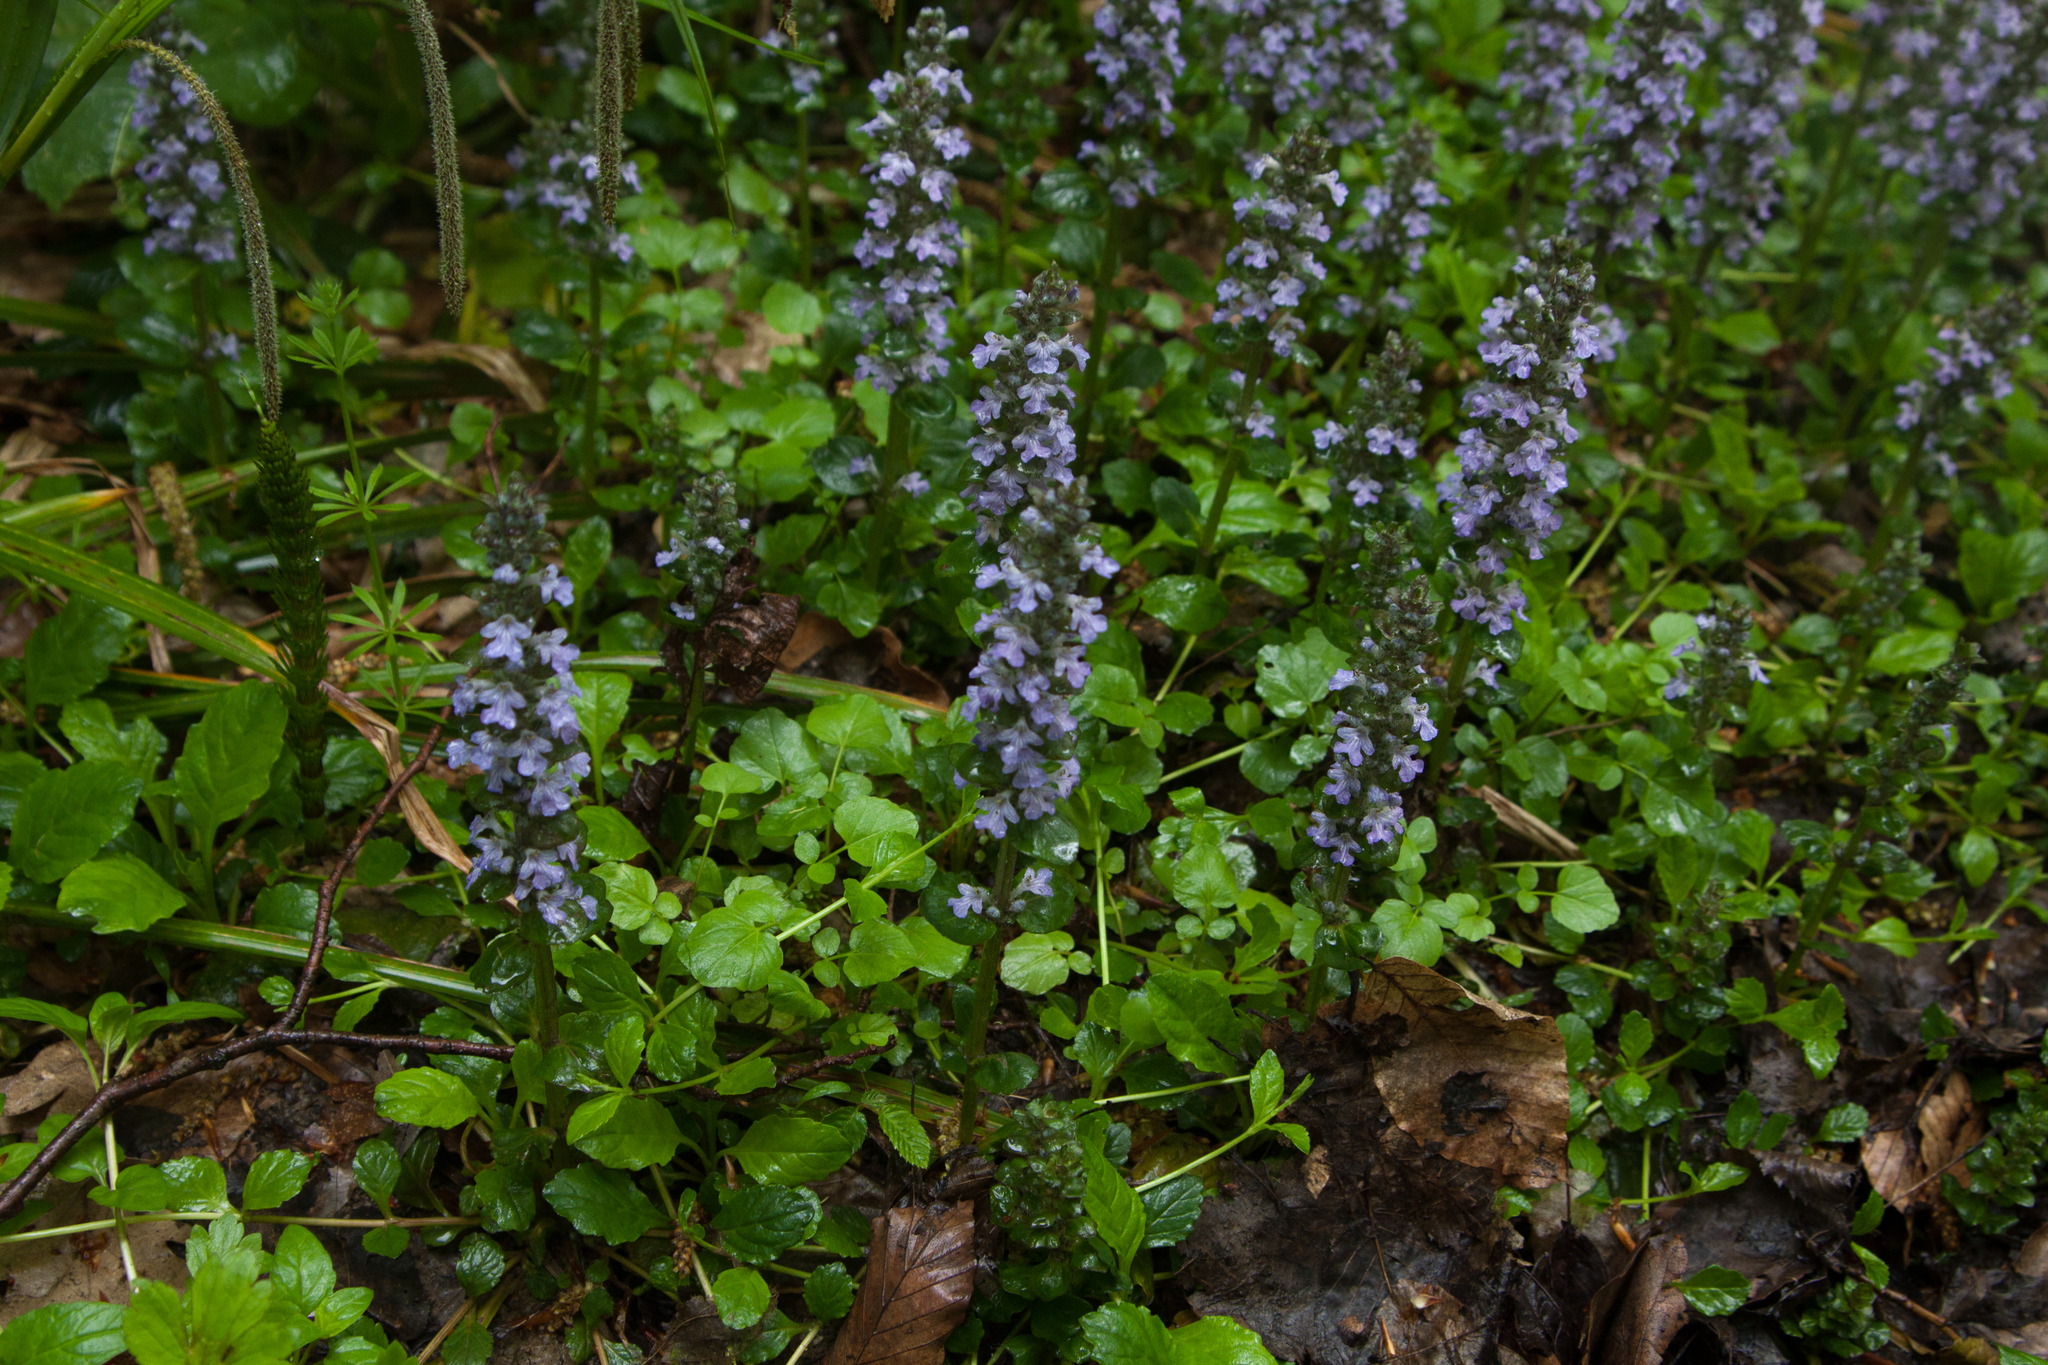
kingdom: Plantae
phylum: Tracheophyta
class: Magnoliopsida
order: Lamiales
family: Lamiaceae
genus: Ajuga
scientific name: Ajuga reptans
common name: Bugle
